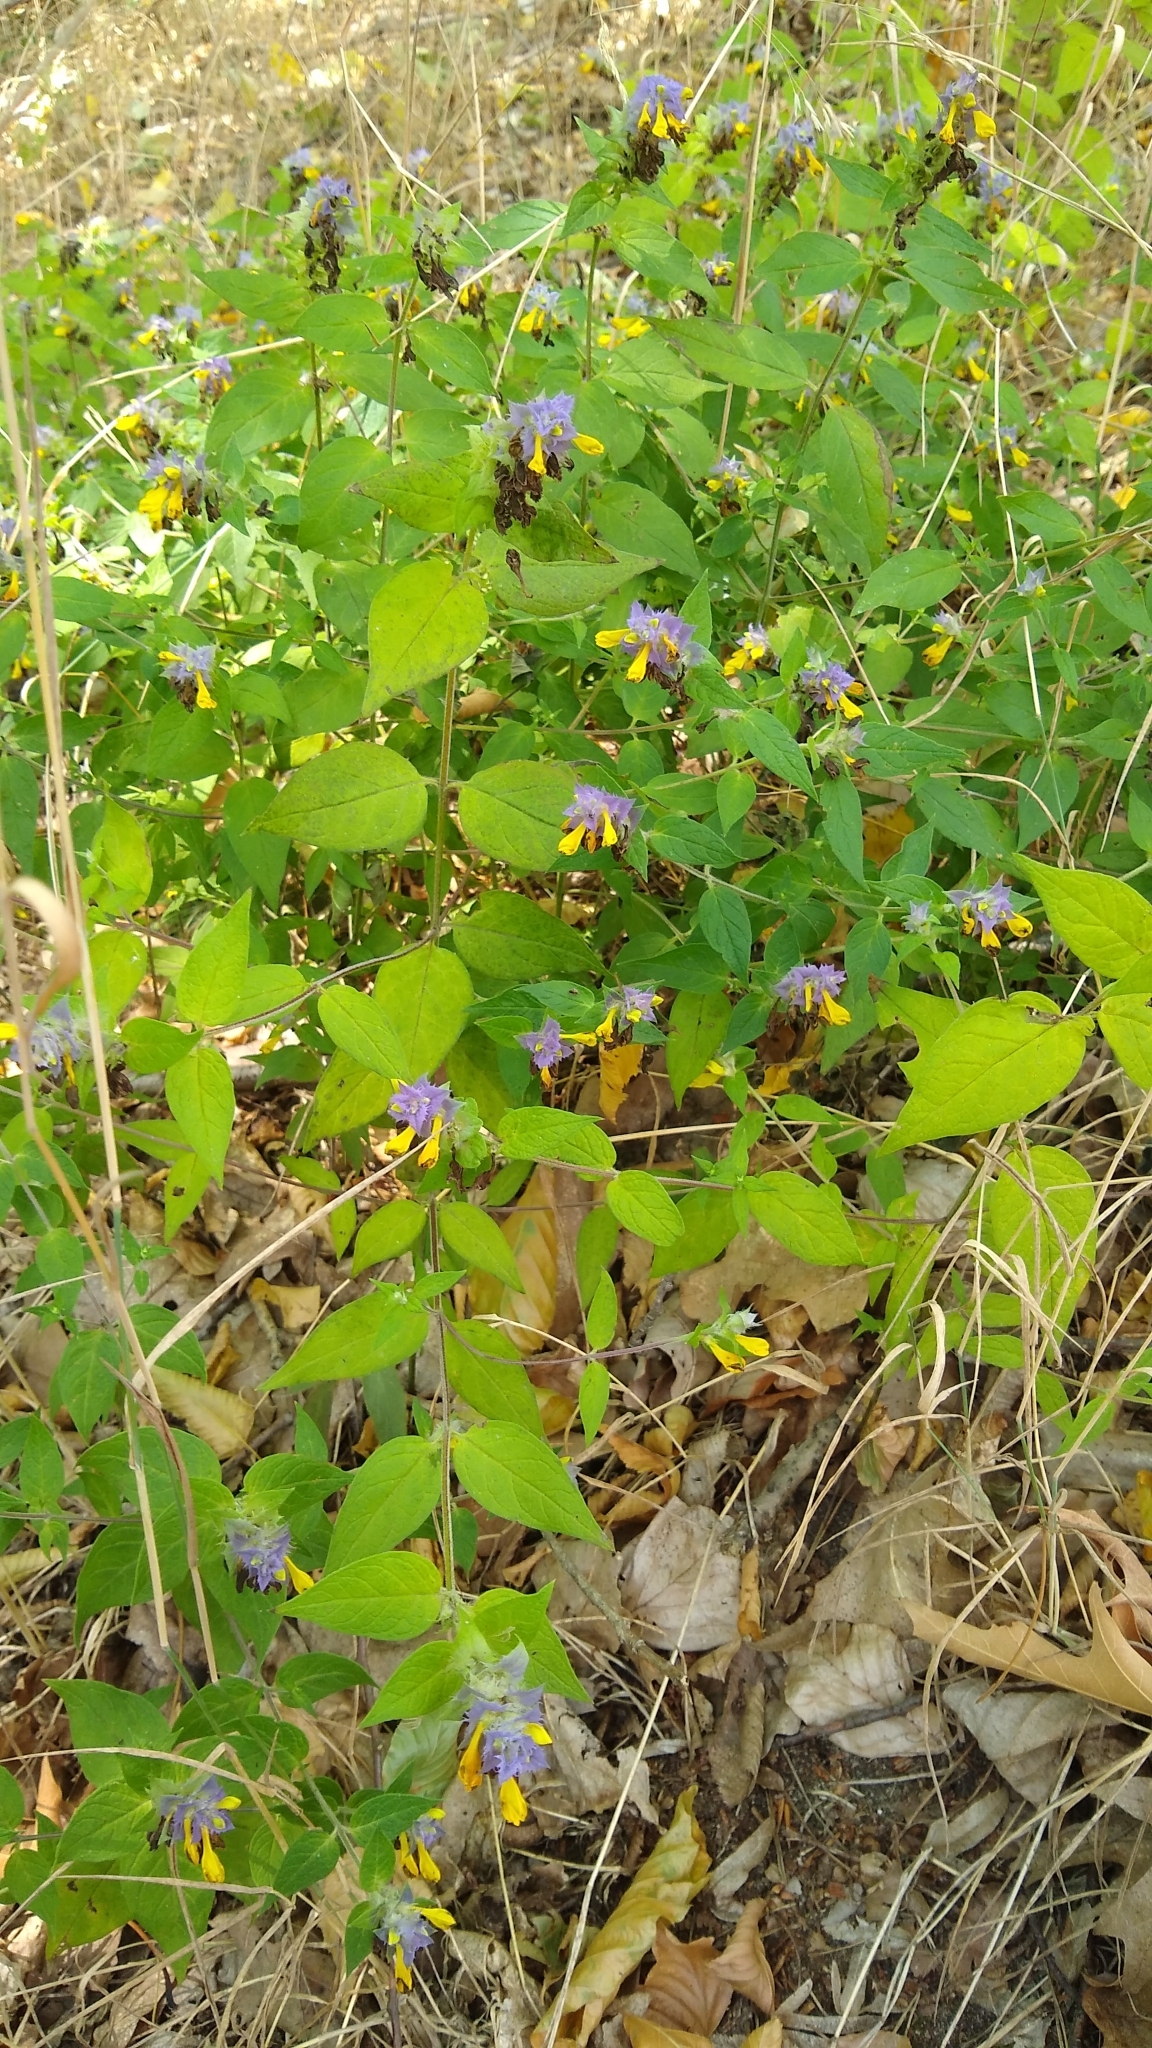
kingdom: Plantae
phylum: Tracheophyta
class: Magnoliopsida
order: Lamiales
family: Orobanchaceae
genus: Melampyrum
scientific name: Melampyrum nemorosum
